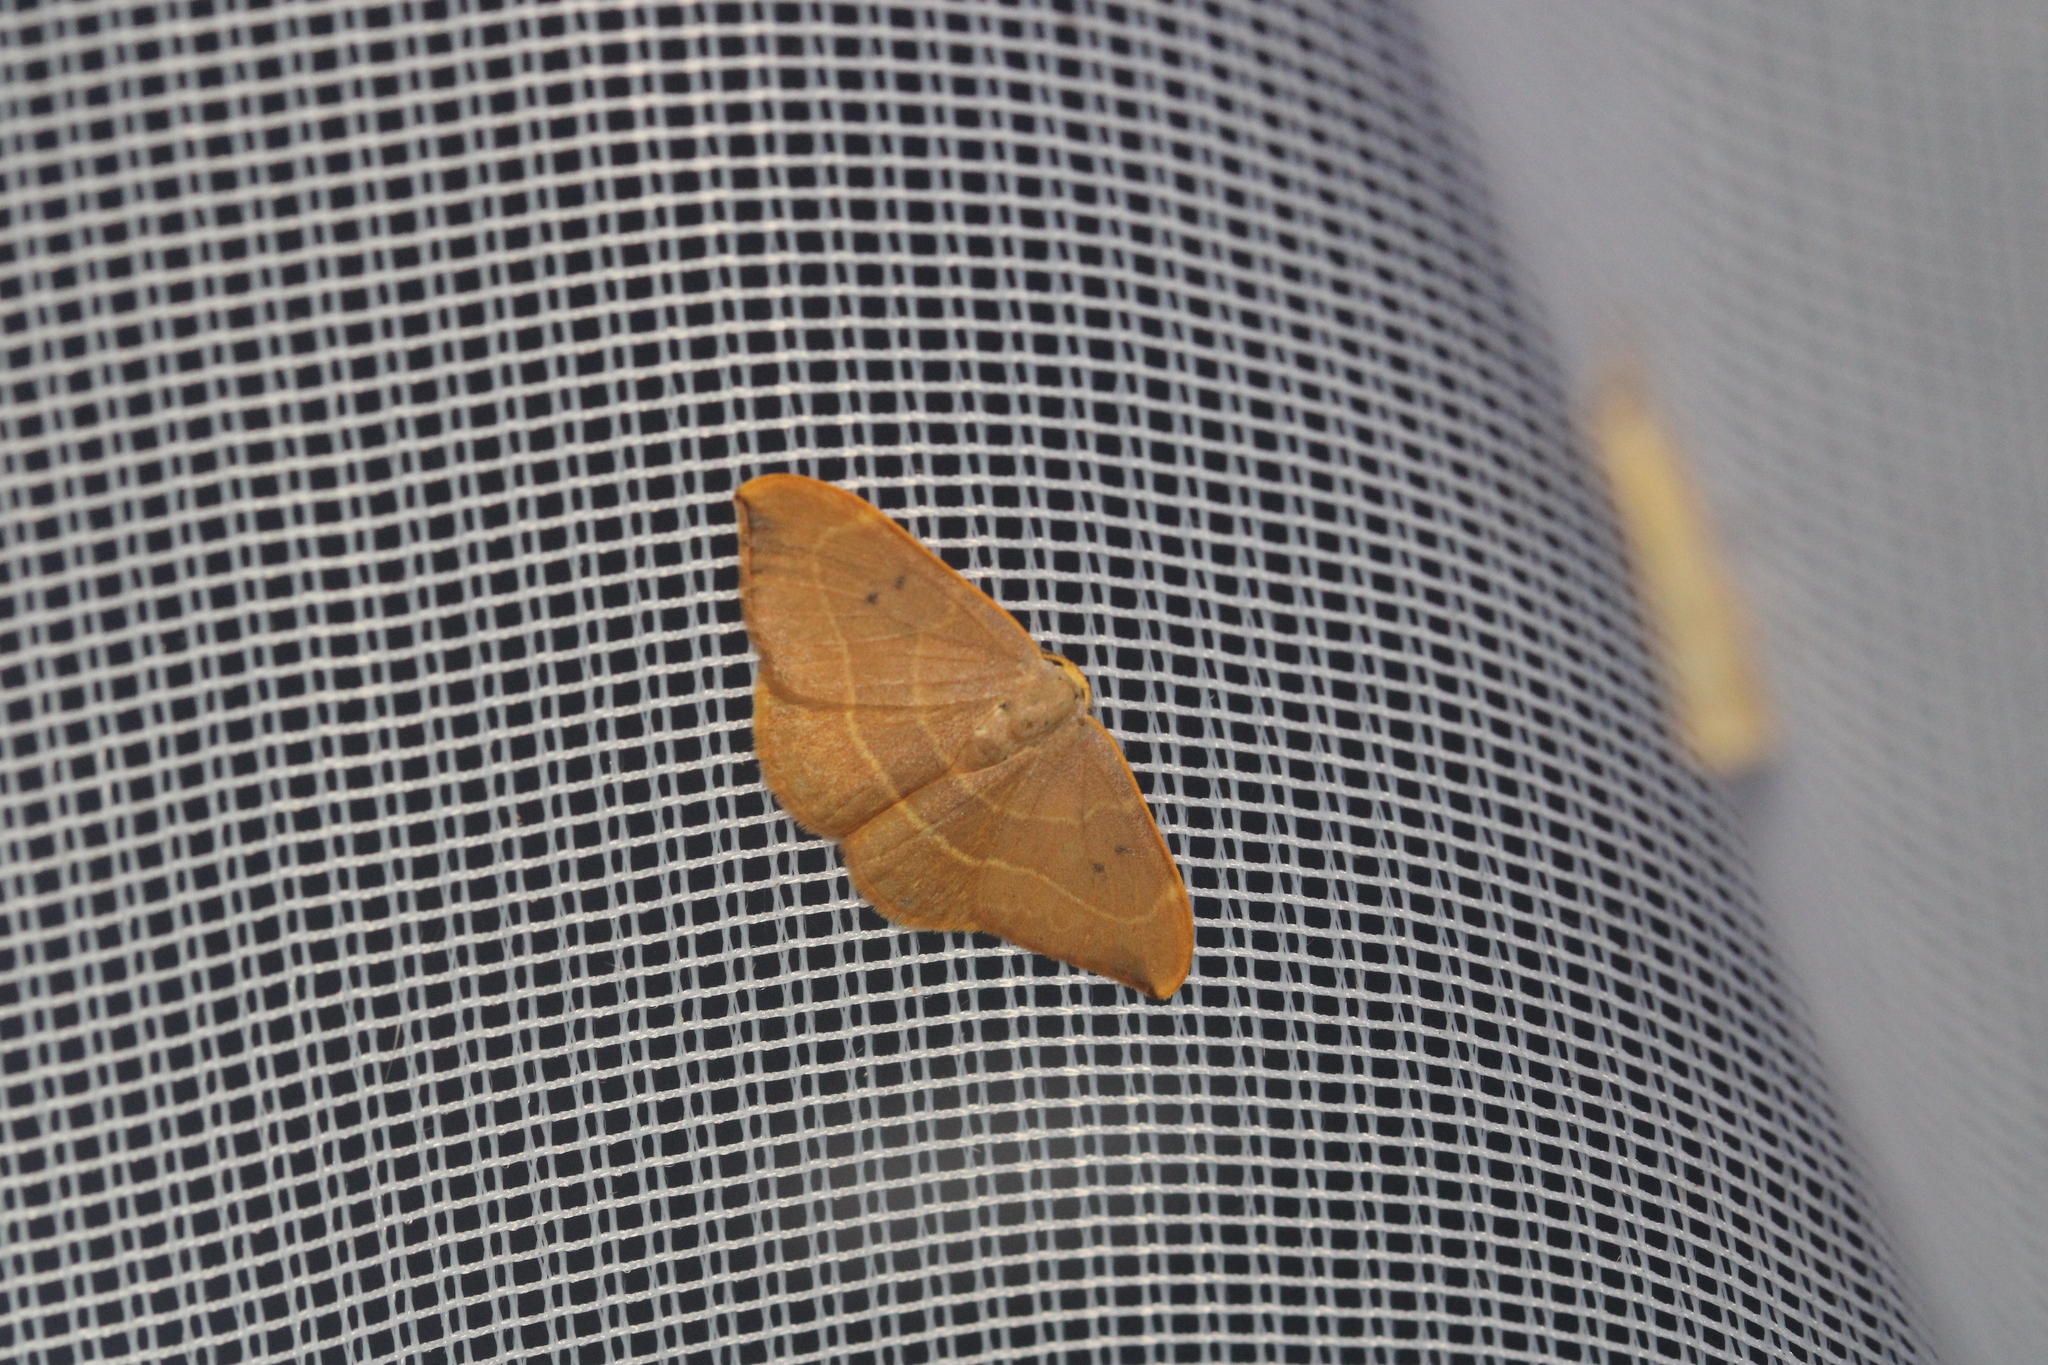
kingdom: Animalia
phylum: Arthropoda
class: Insecta
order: Lepidoptera
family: Drepanidae
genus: Watsonalla
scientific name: Watsonalla binaria
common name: Oak hook-tip
